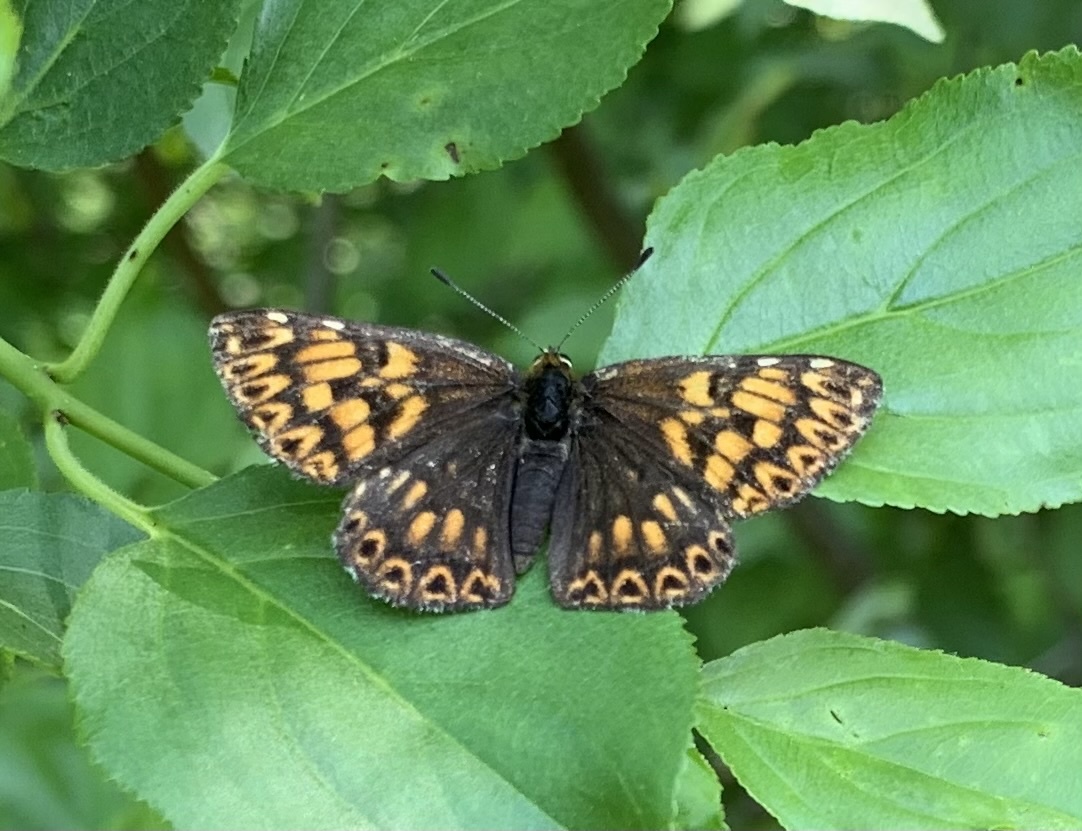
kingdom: Animalia
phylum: Arthropoda
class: Insecta
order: Lepidoptera
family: Riodinidae
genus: Hamearis
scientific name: Hamearis lucina
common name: Duke of burgundy fritillary
